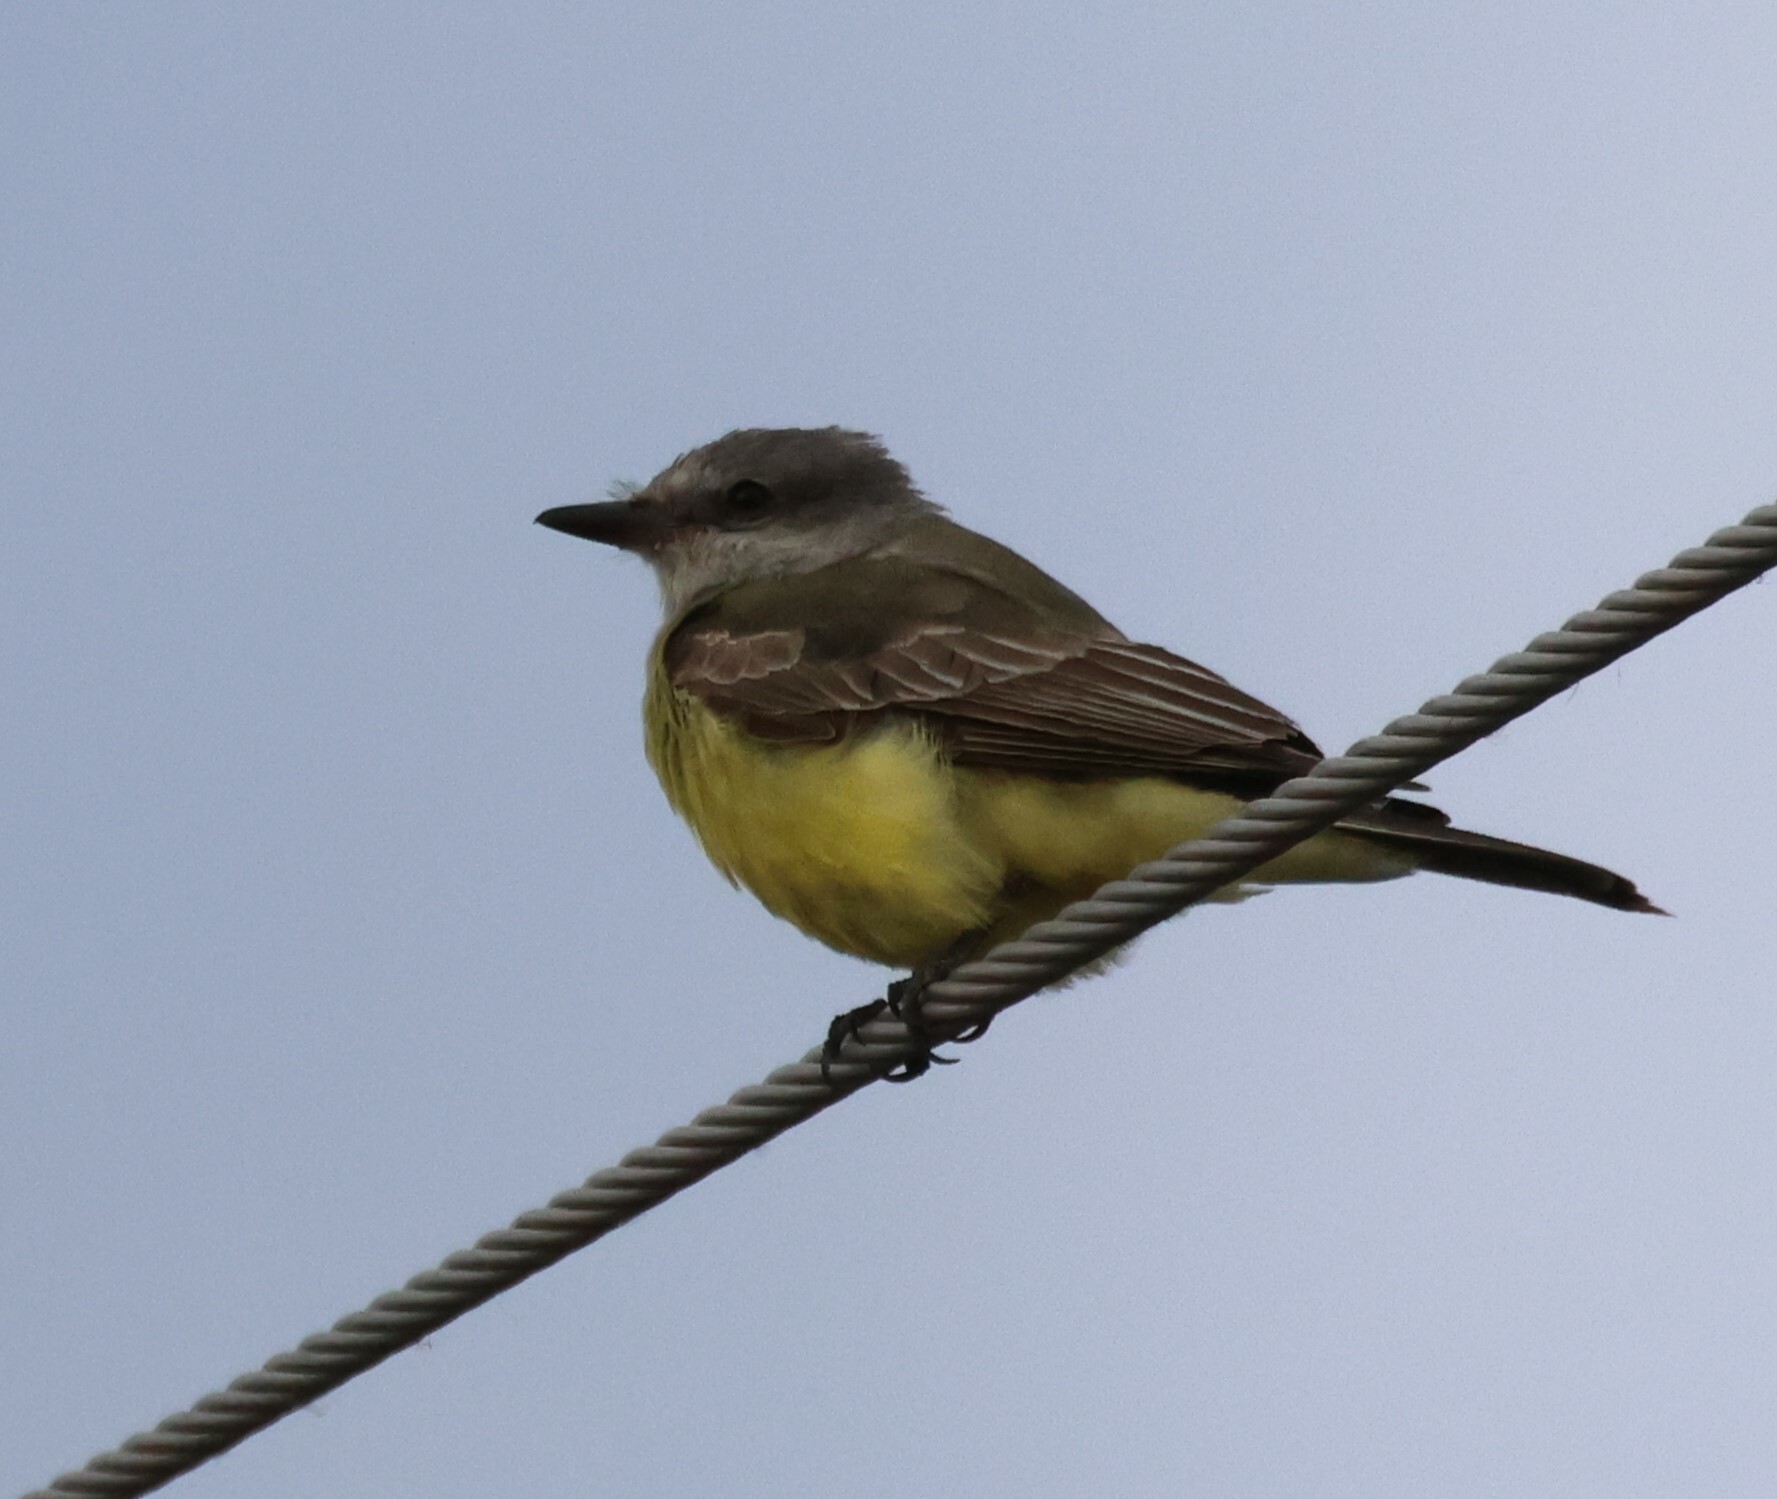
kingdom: Animalia
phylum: Chordata
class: Aves
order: Passeriformes
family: Tyrannidae
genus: Tyrannus
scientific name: Tyrannus verticalis
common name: Western kingbird
